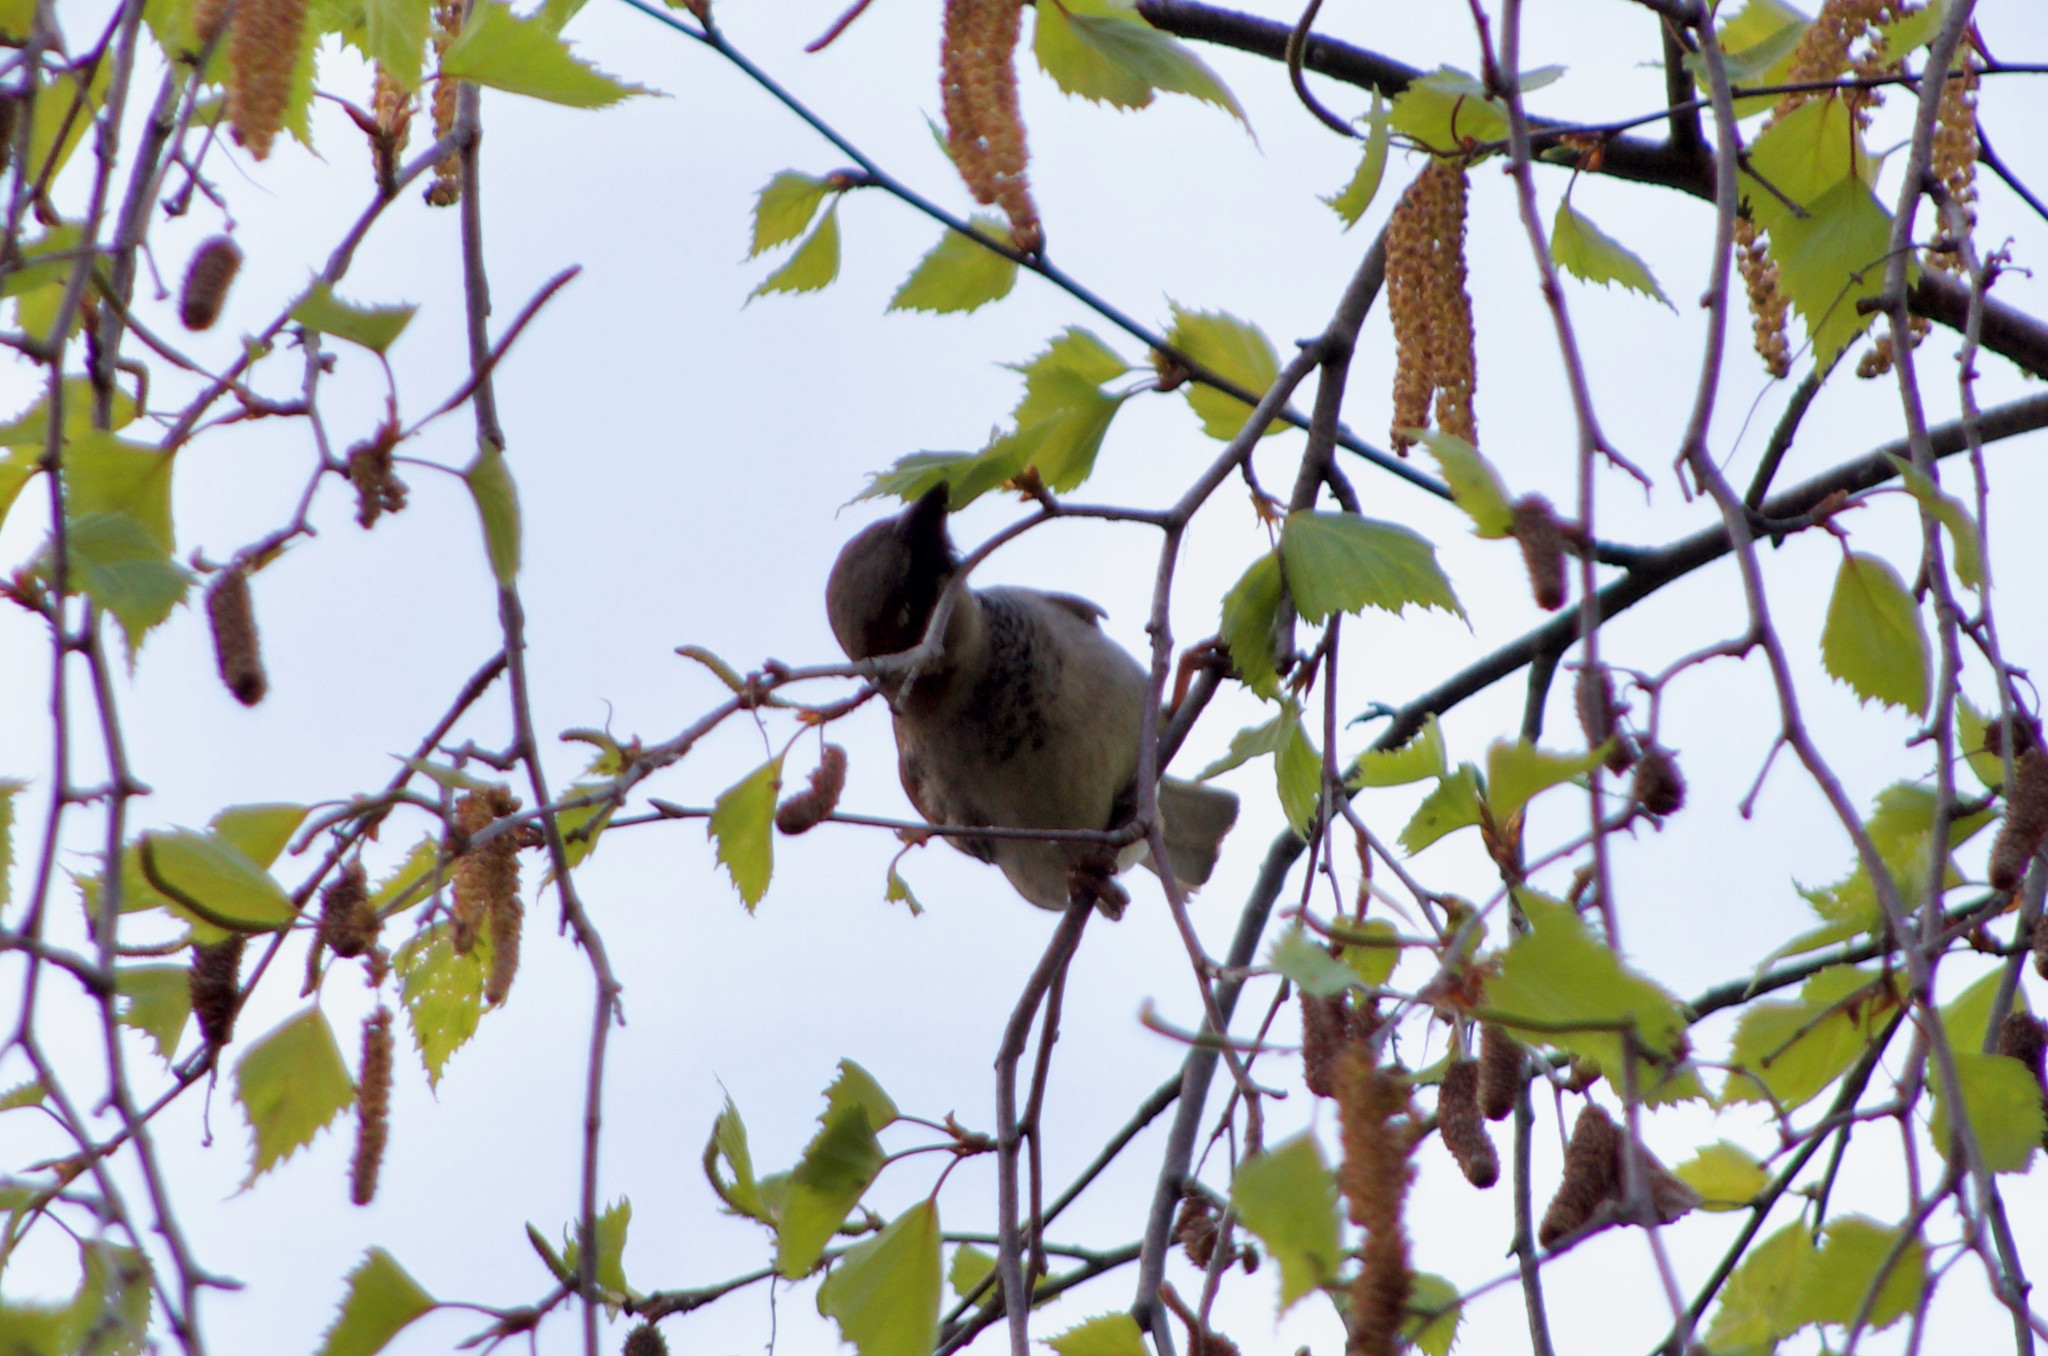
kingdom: Animalia
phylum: Chordata
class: Aves
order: Passeriformes
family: Passeridae
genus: Passer
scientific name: Passer domesticus
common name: House sparrow
